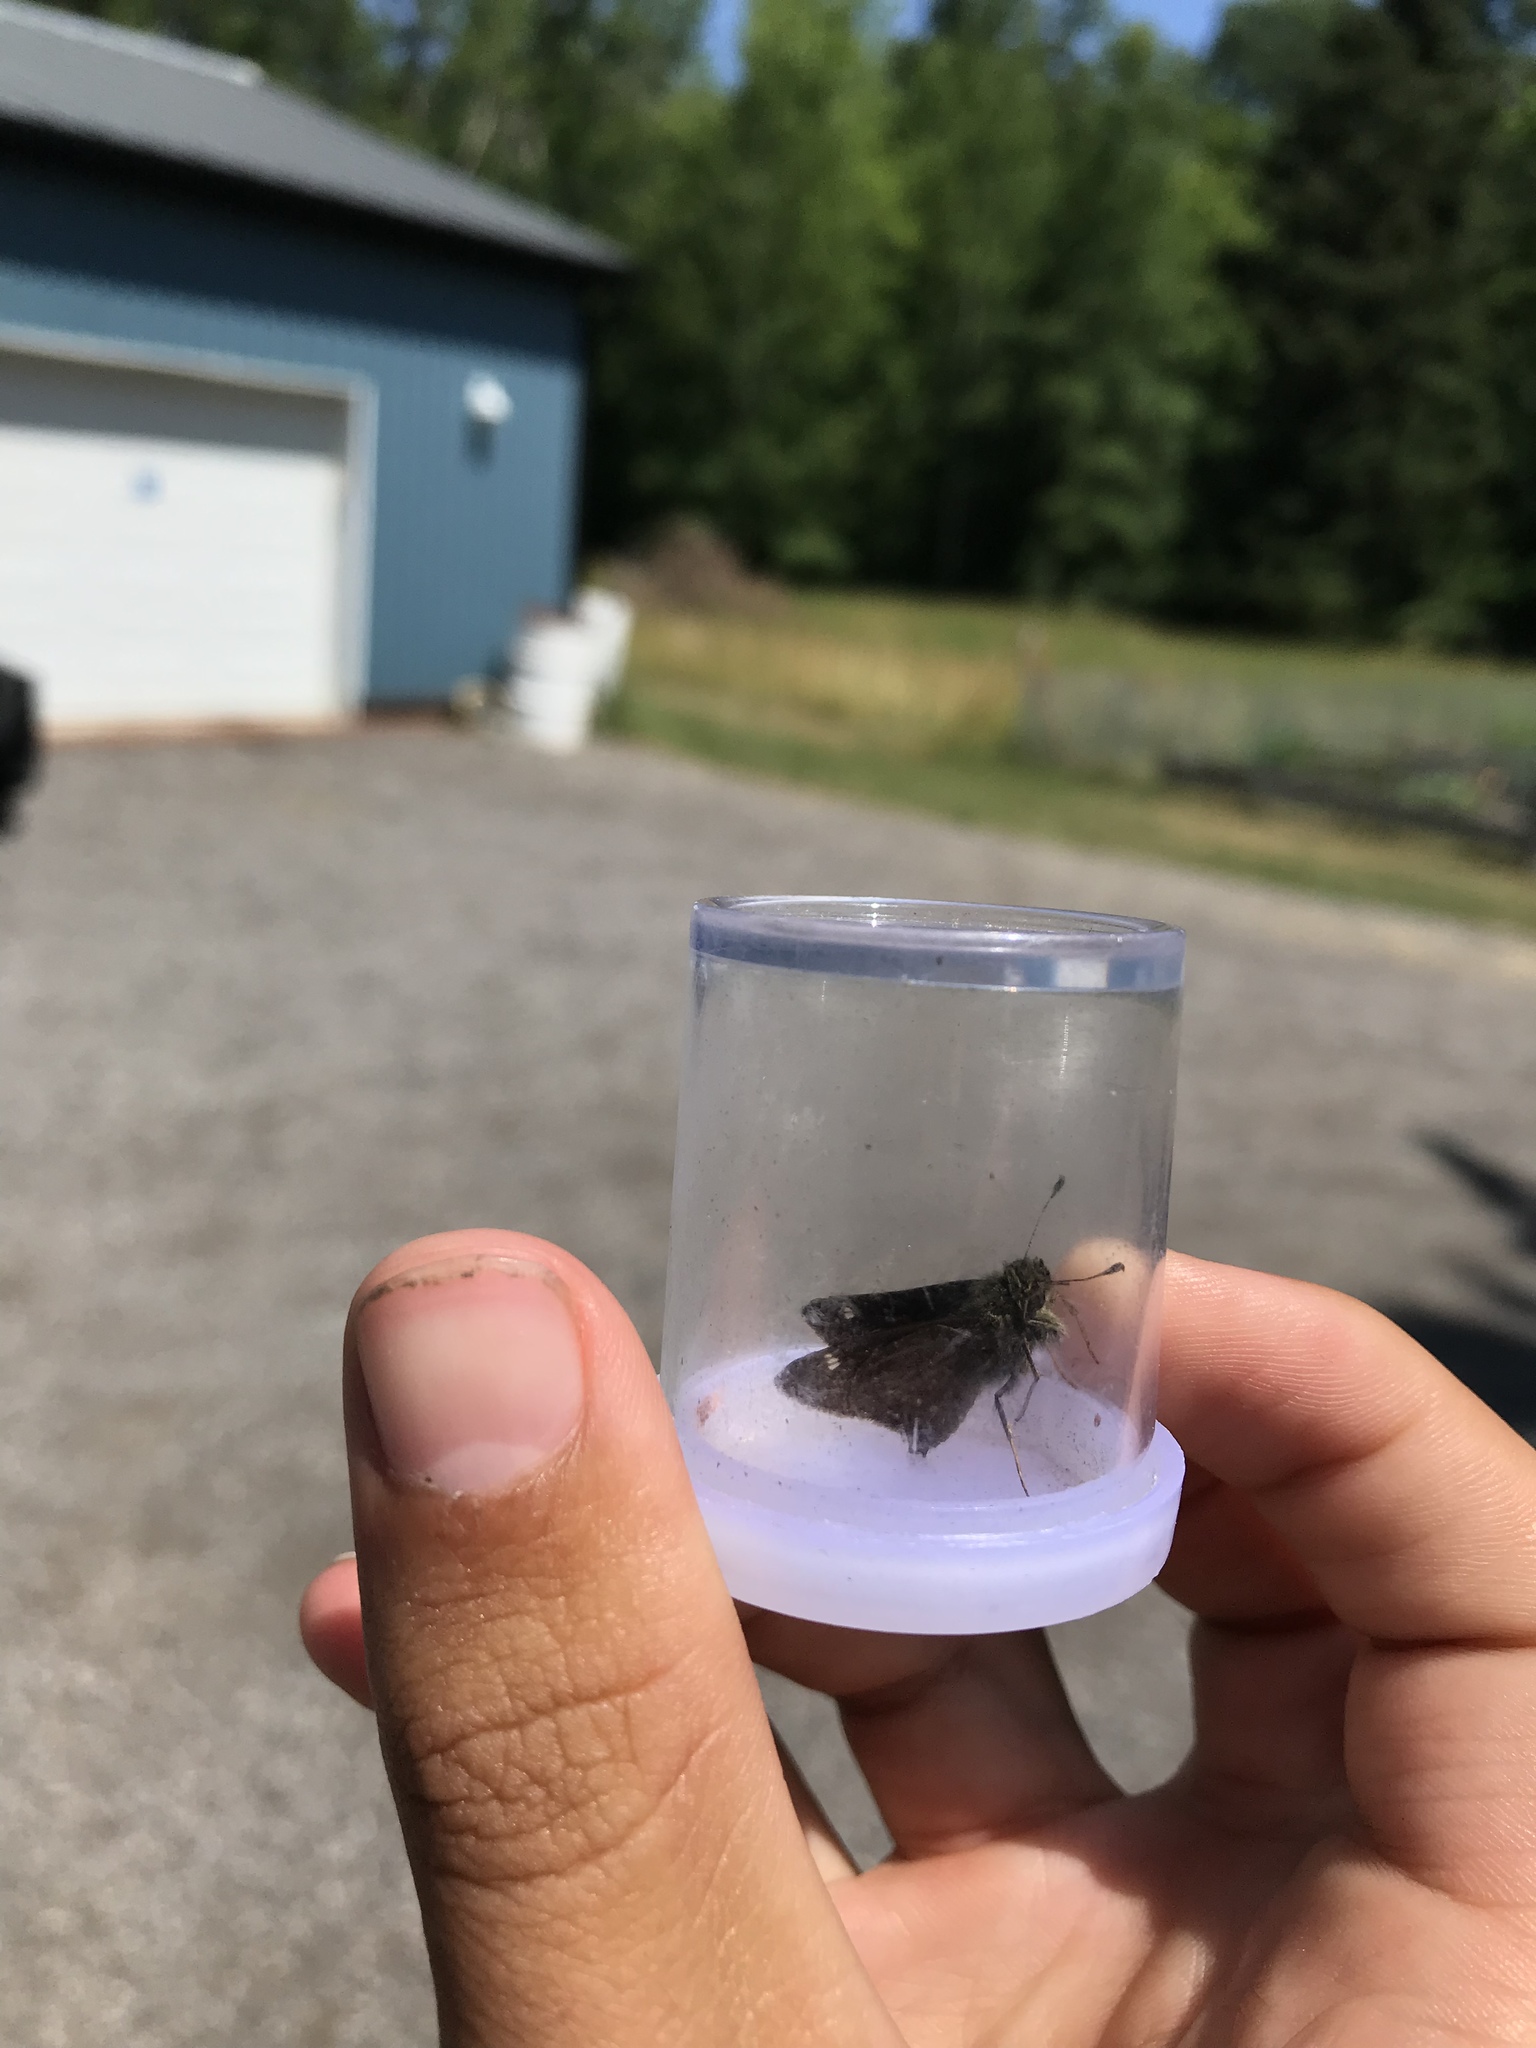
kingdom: Animalia
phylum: Arthropoda
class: Insecta
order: Lepidoptera
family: Hesperiidae
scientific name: Hesperiidae
